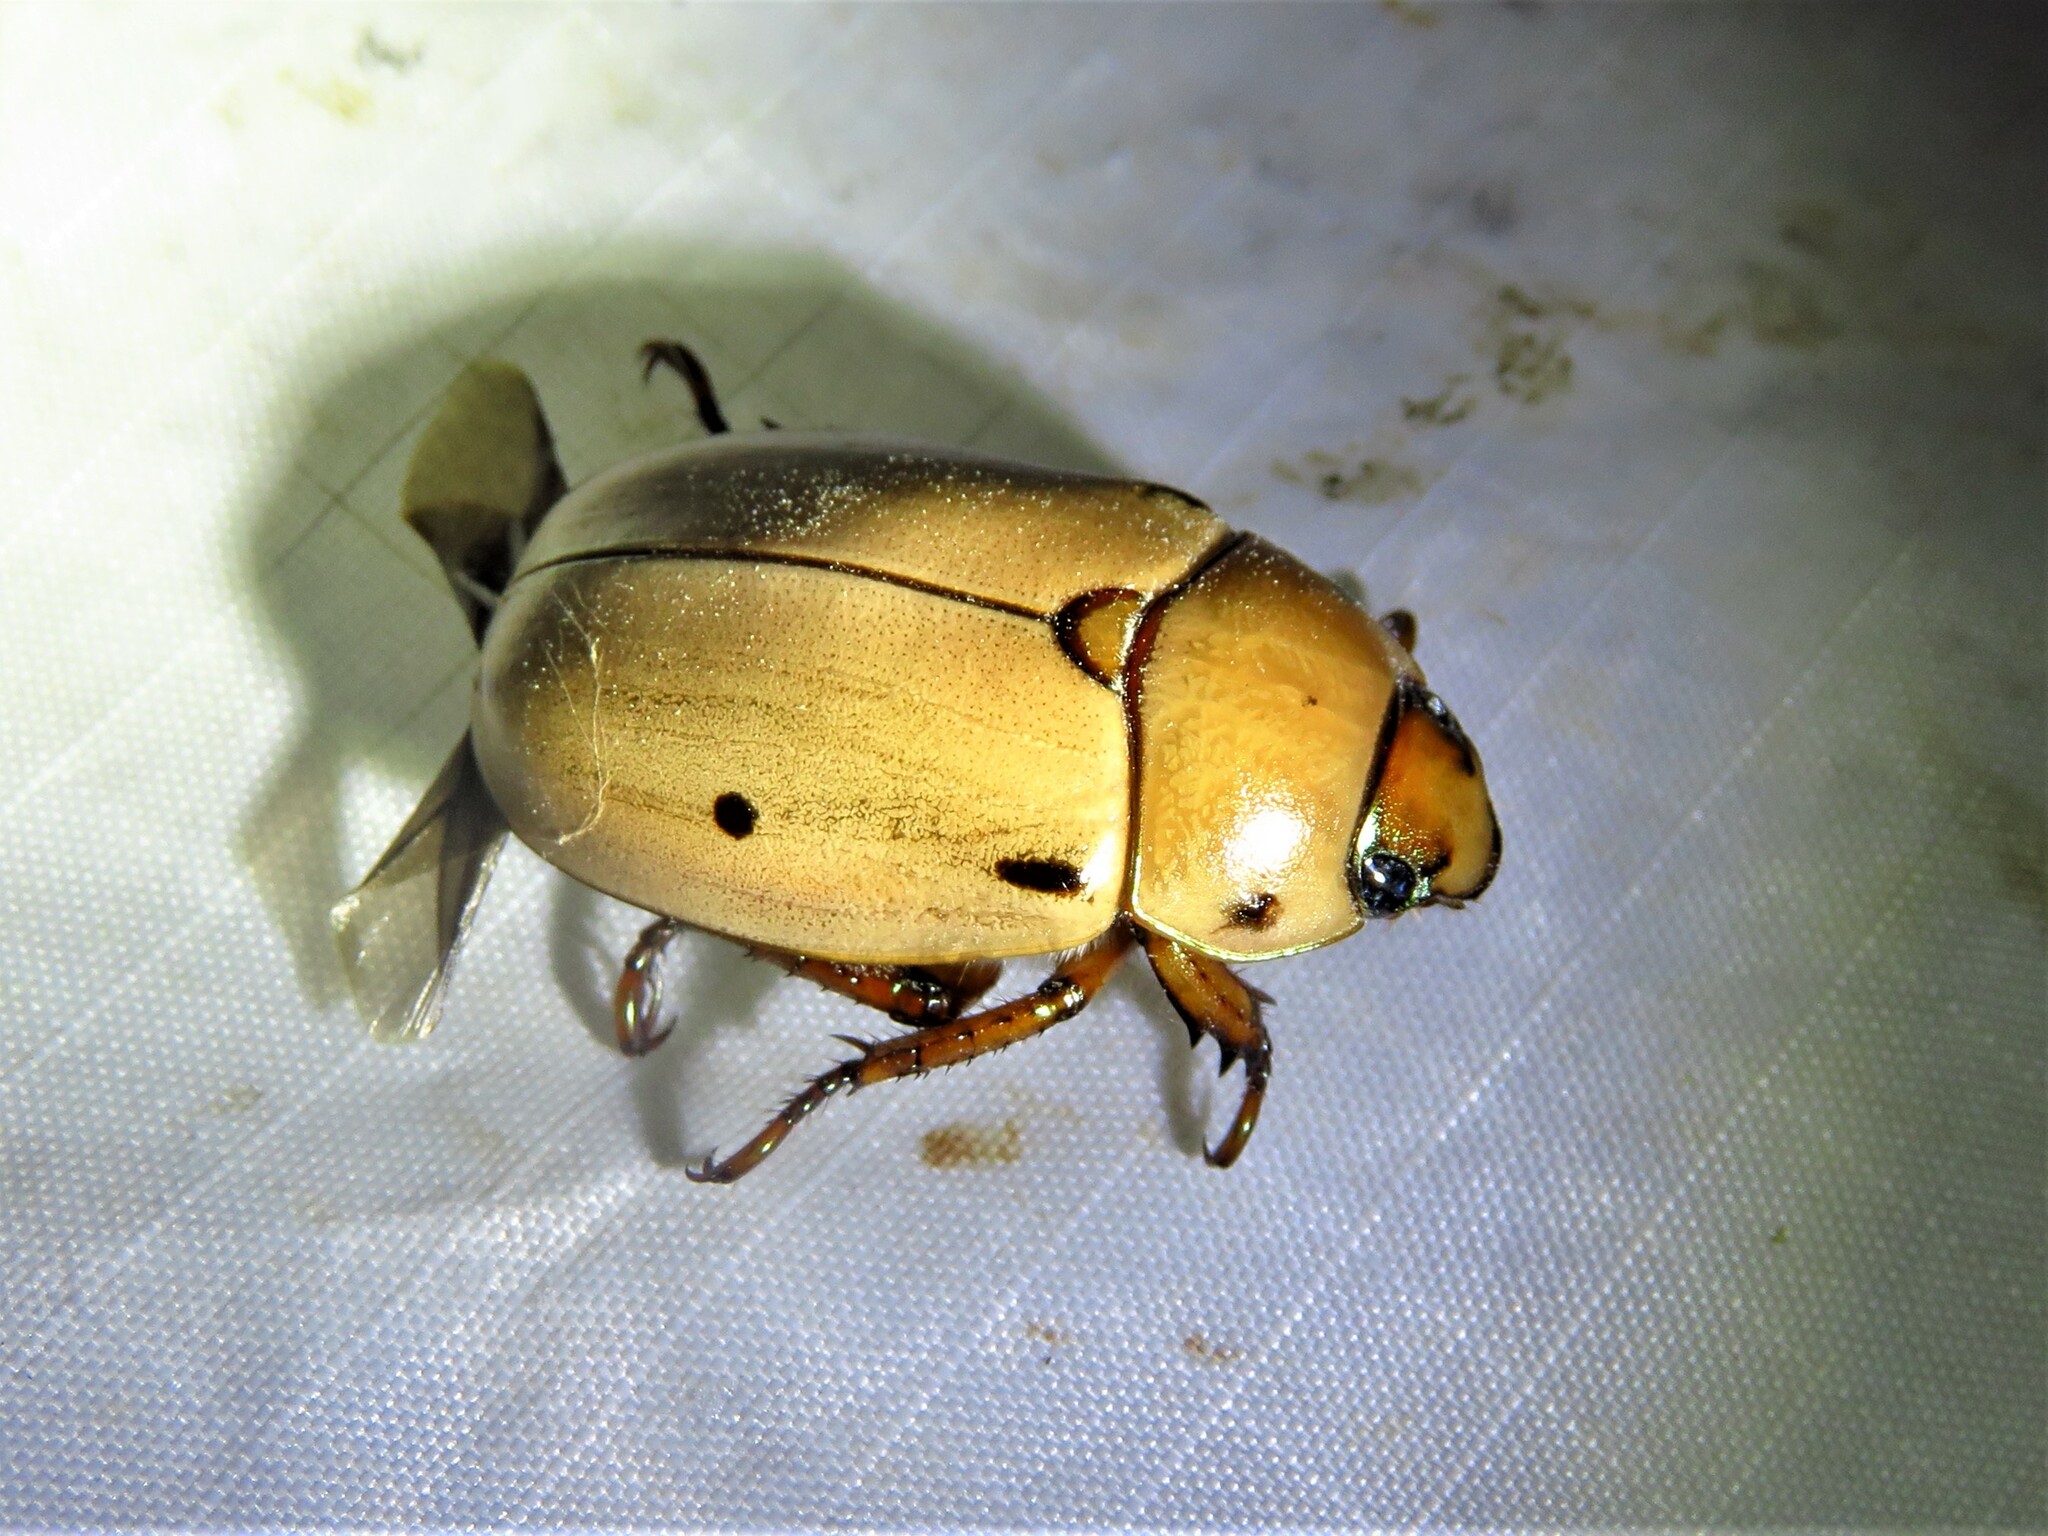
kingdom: Animalia
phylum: Arthropoda
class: Insecta
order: Coleoptera
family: Scarabaeidae
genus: Pelidnota
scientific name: Pelidnota punctata
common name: Grapevine beetle
